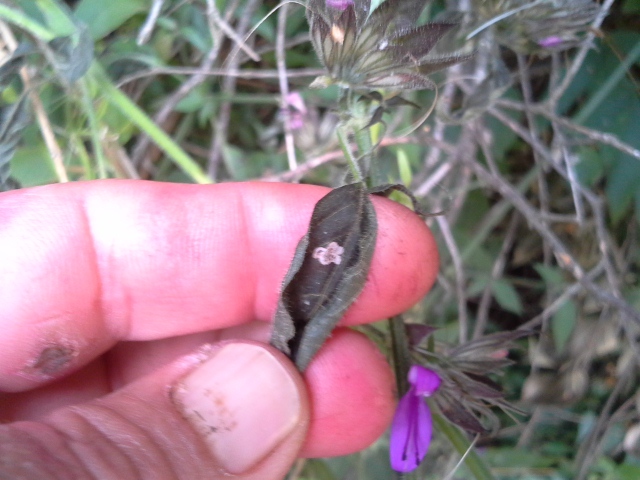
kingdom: Plantae
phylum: Tracheophyta
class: Magnoliopsida
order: Lamiales
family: Acanthaceae
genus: Dicliptera
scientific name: Dicliptera clinopodia
